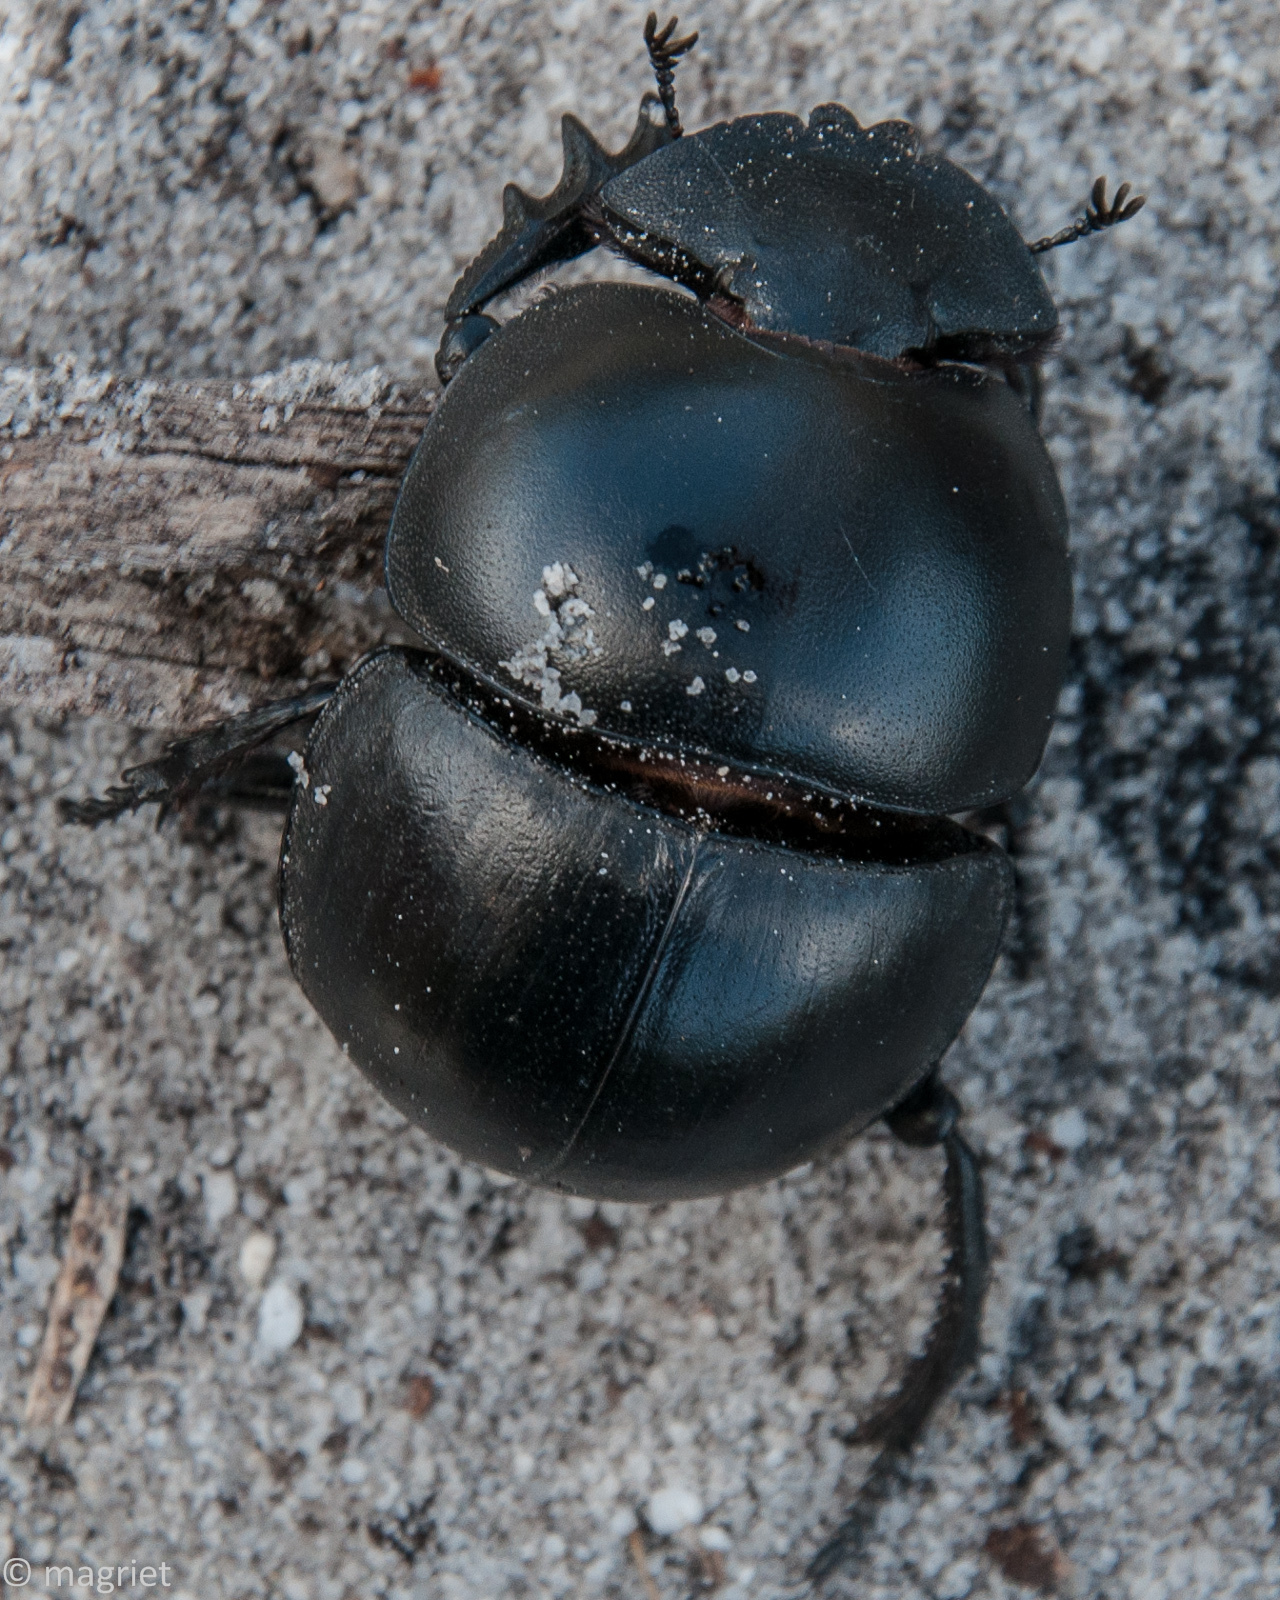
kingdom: Animalia
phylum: Arthropoda
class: Insecta
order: Coleoptera
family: Scarabaeidae
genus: Circellium
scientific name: Circellium bacchus
